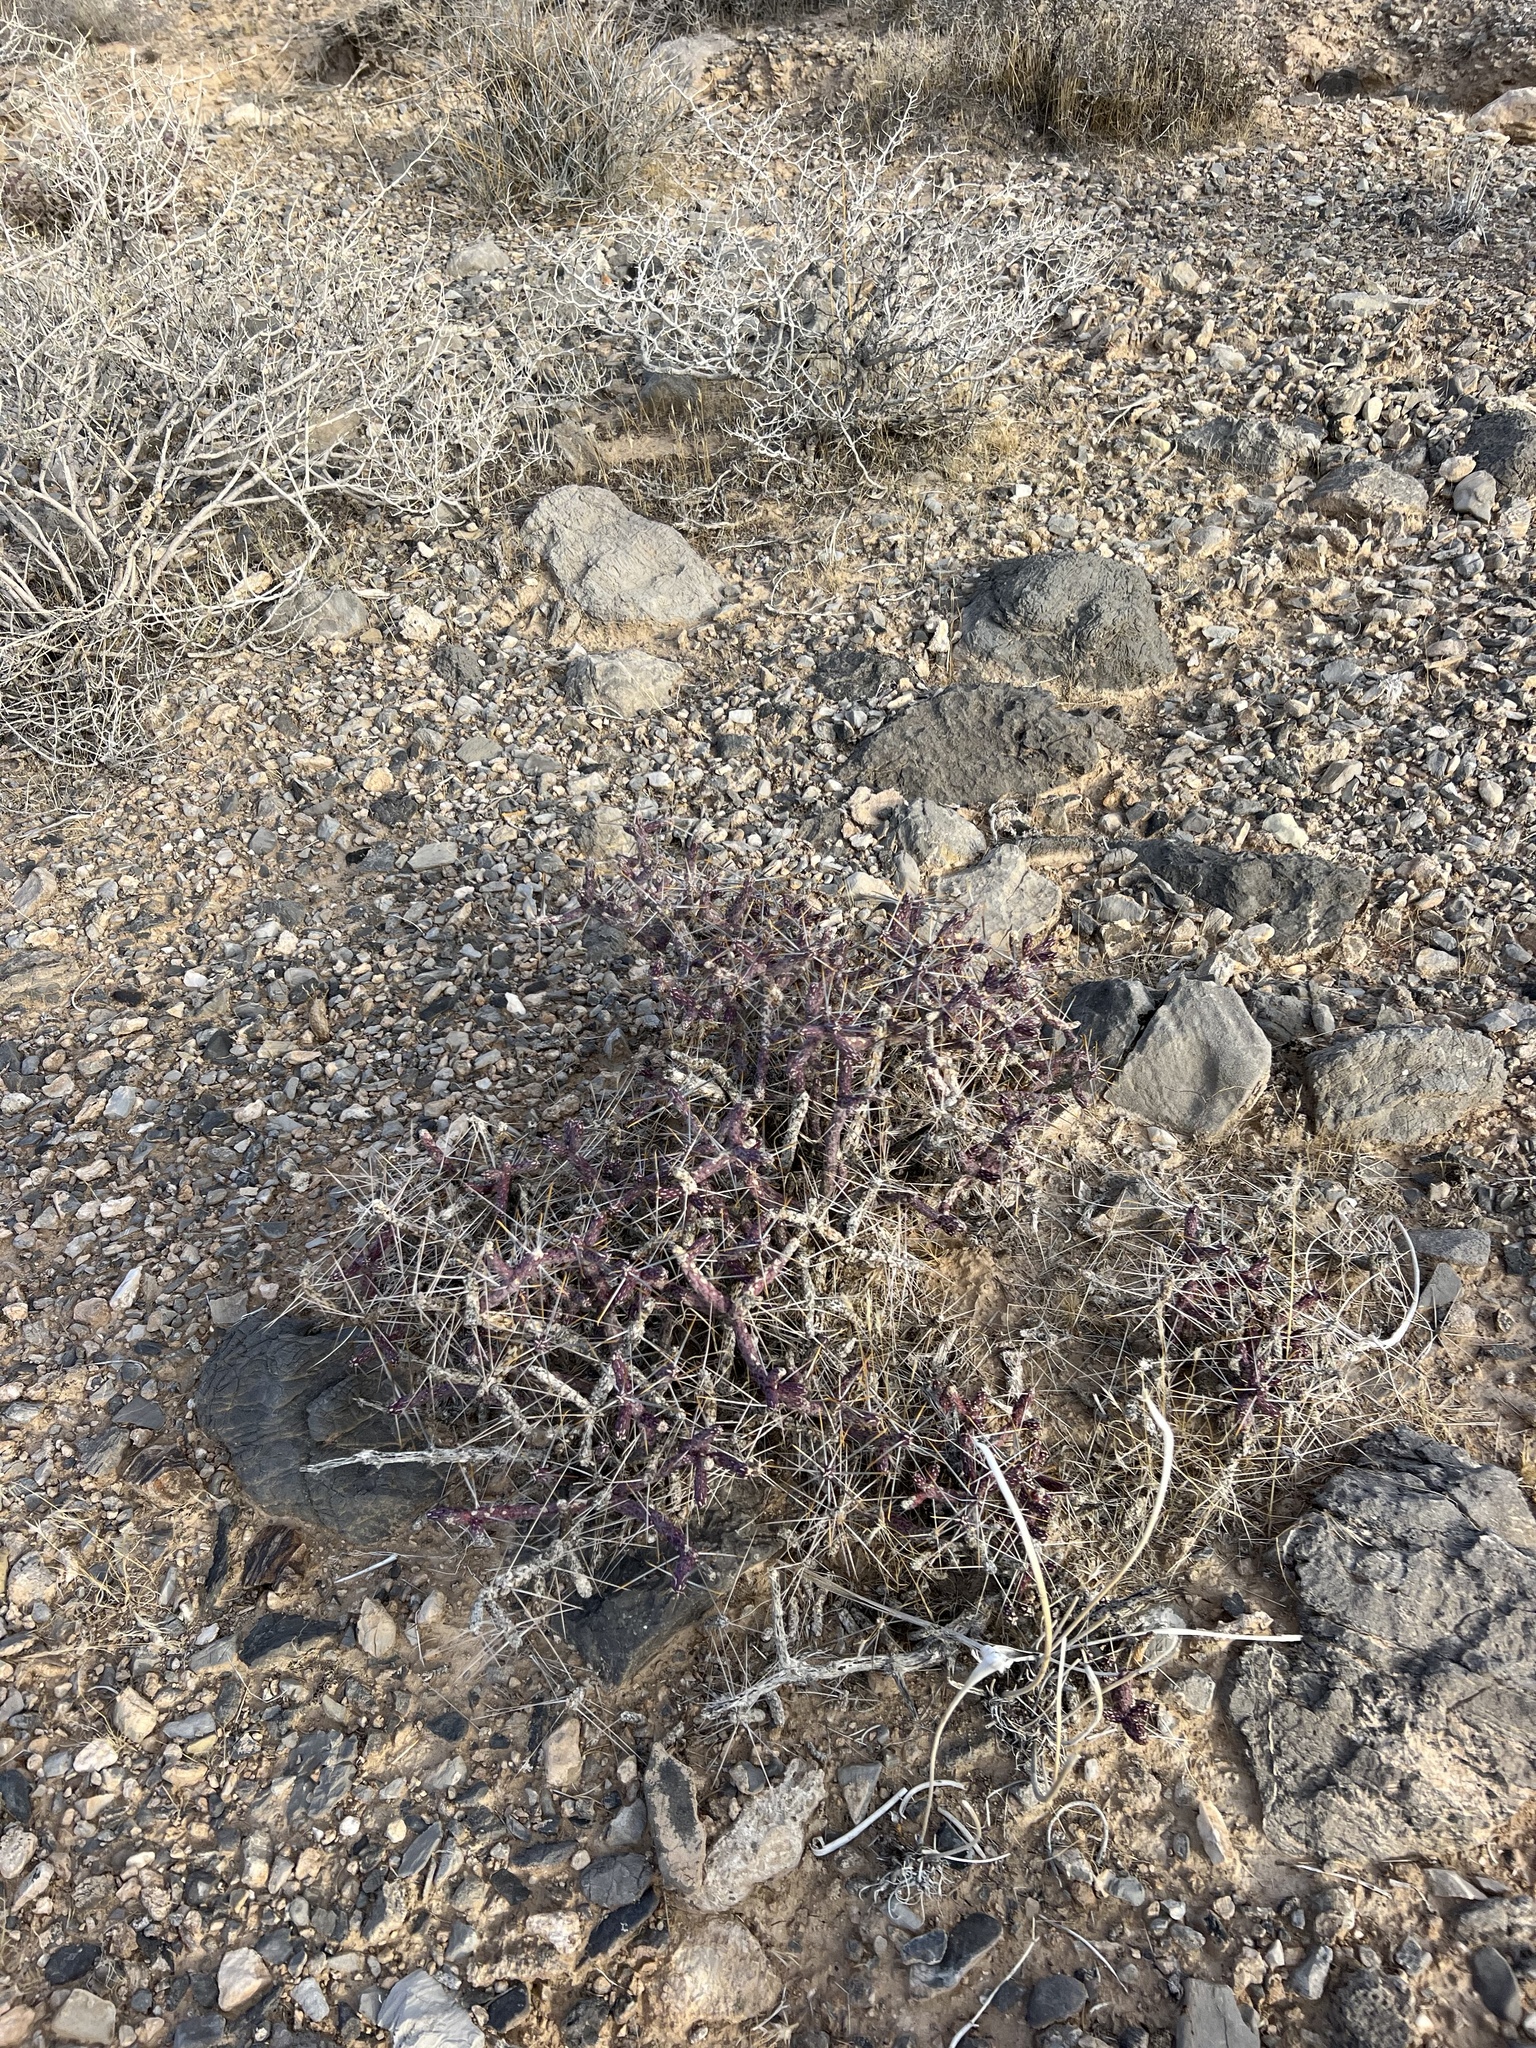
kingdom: Plantae
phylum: Tracheophyta
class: Magnoliopsida
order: Caryophyllales
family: Cactaceae
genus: Cylindropuntia
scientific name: Cylindropuntia ramosissima
